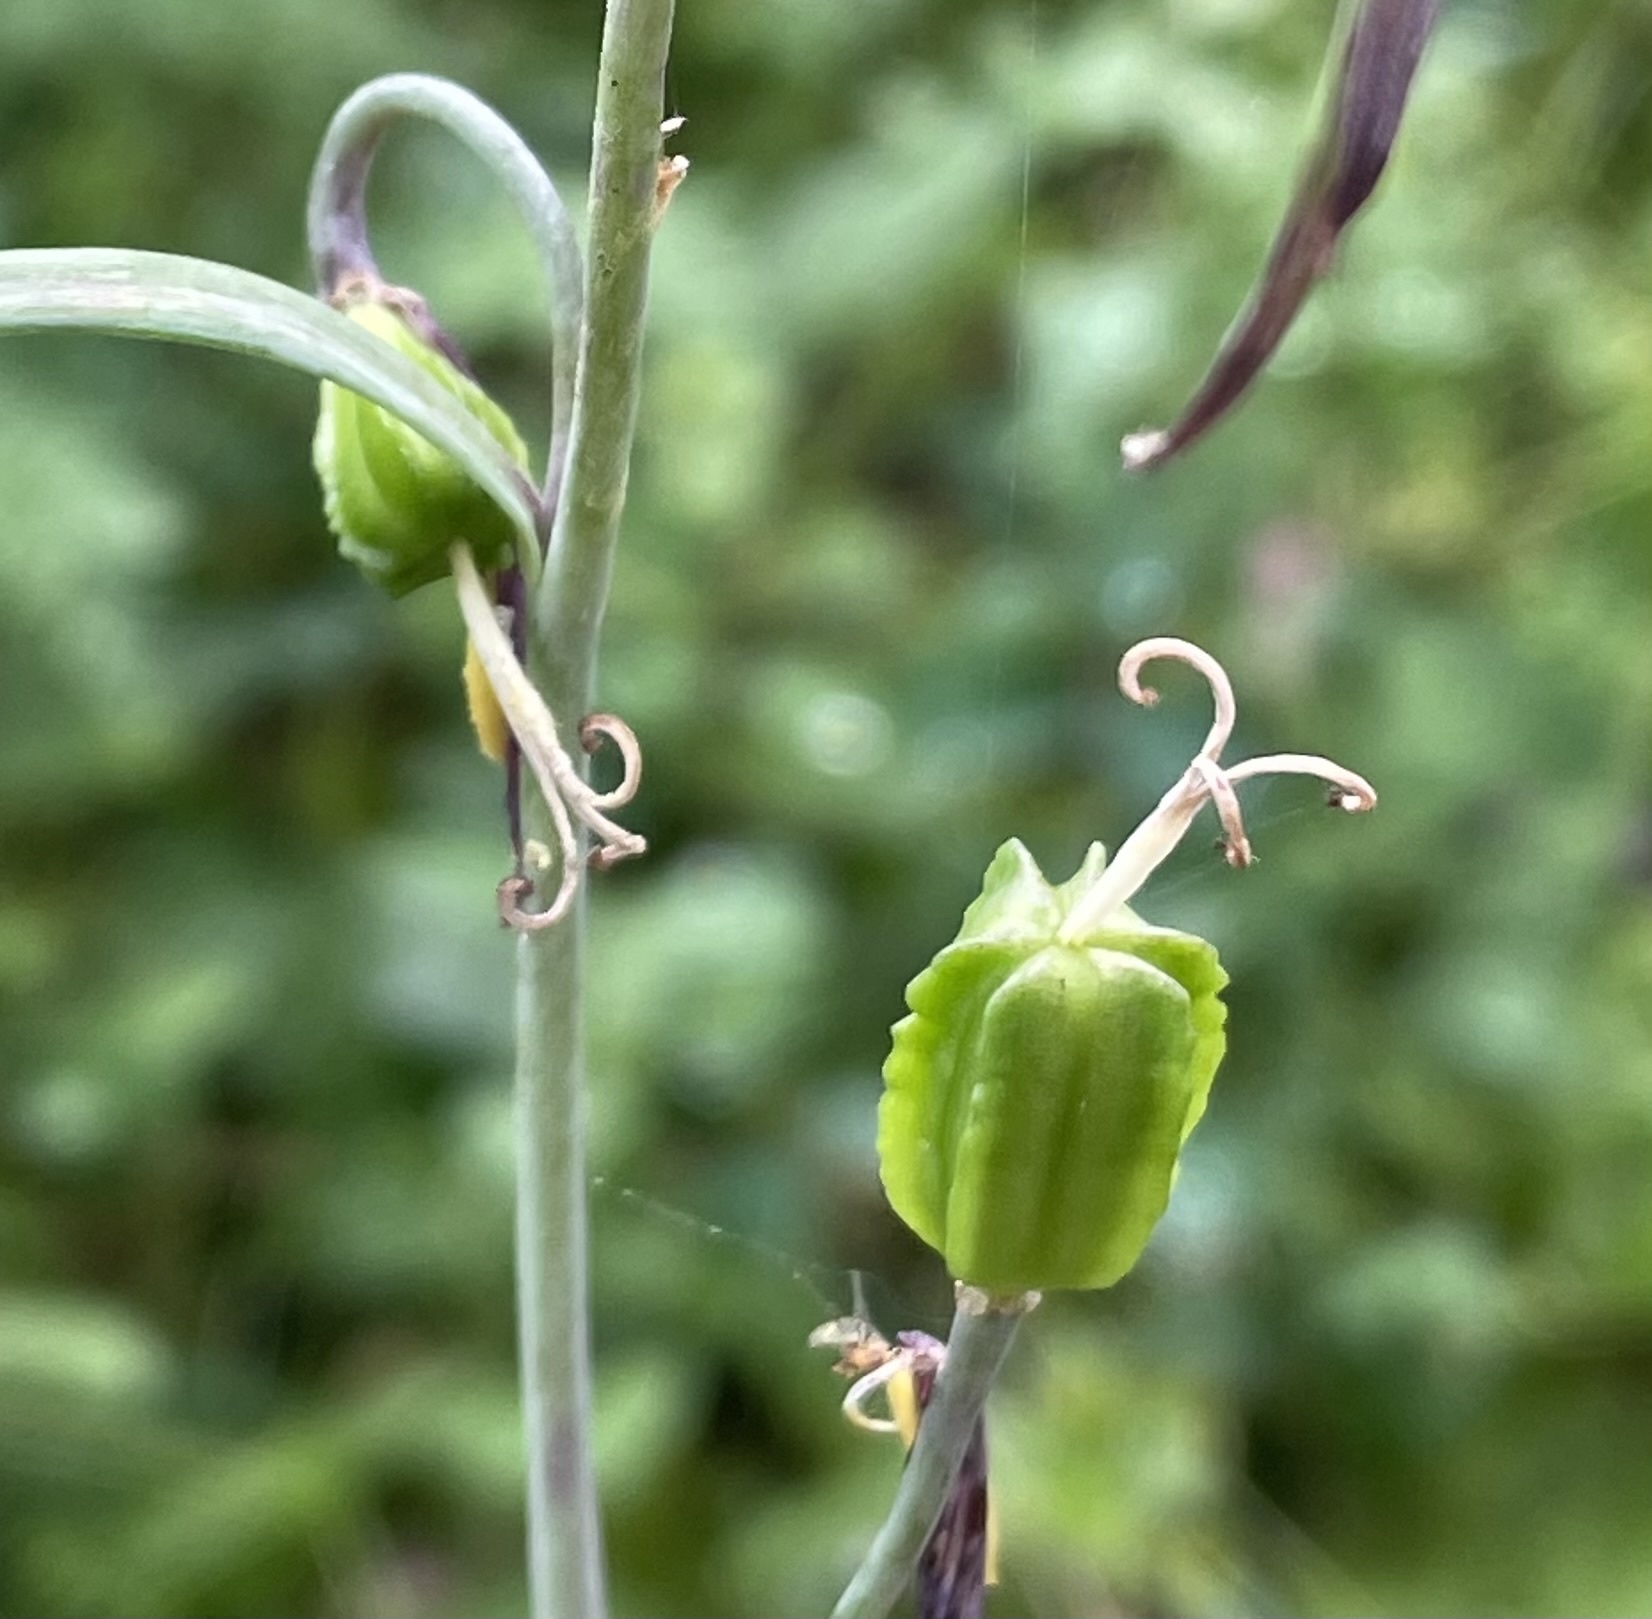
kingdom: Plantae
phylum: Tracheophyta
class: Liliopsida
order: Liliales
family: Liliaceae
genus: Fritillaria
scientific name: Fritillaria affinis
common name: Ojai fritillary
